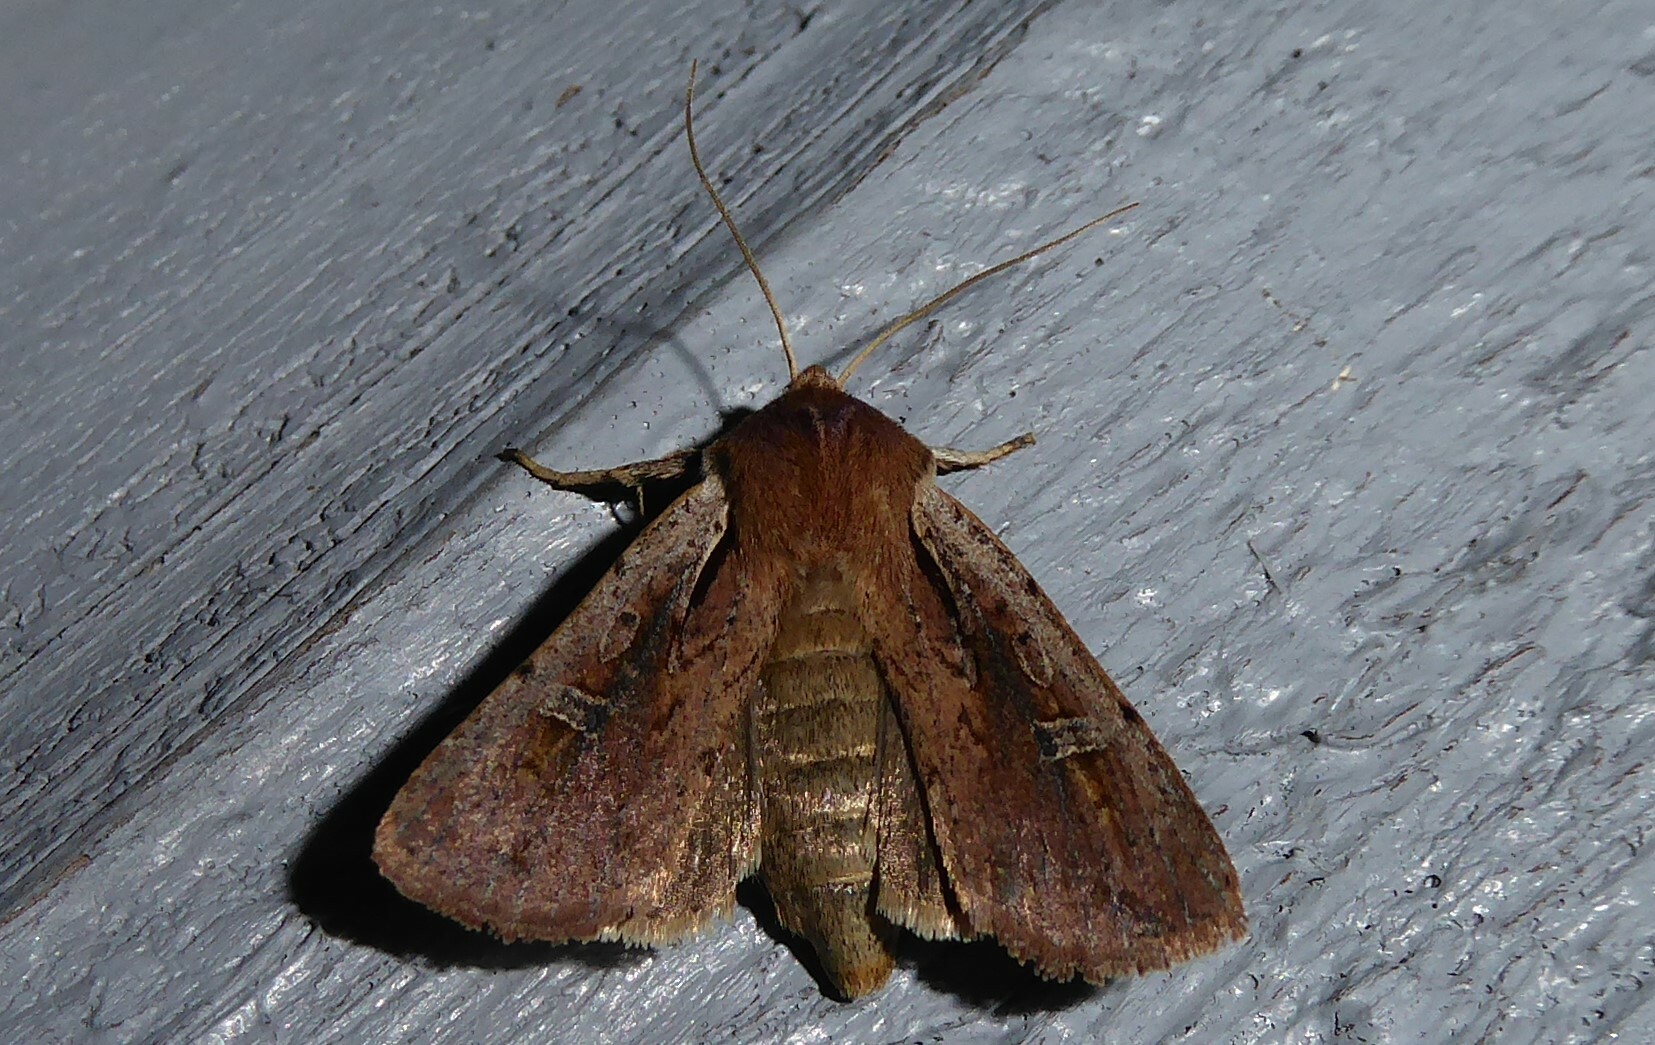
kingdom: Animalia
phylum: Arthropoda
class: Insecta
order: Lepidoptera
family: Noctuidae
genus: Ichneutica
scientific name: Ichneutica atristriga
